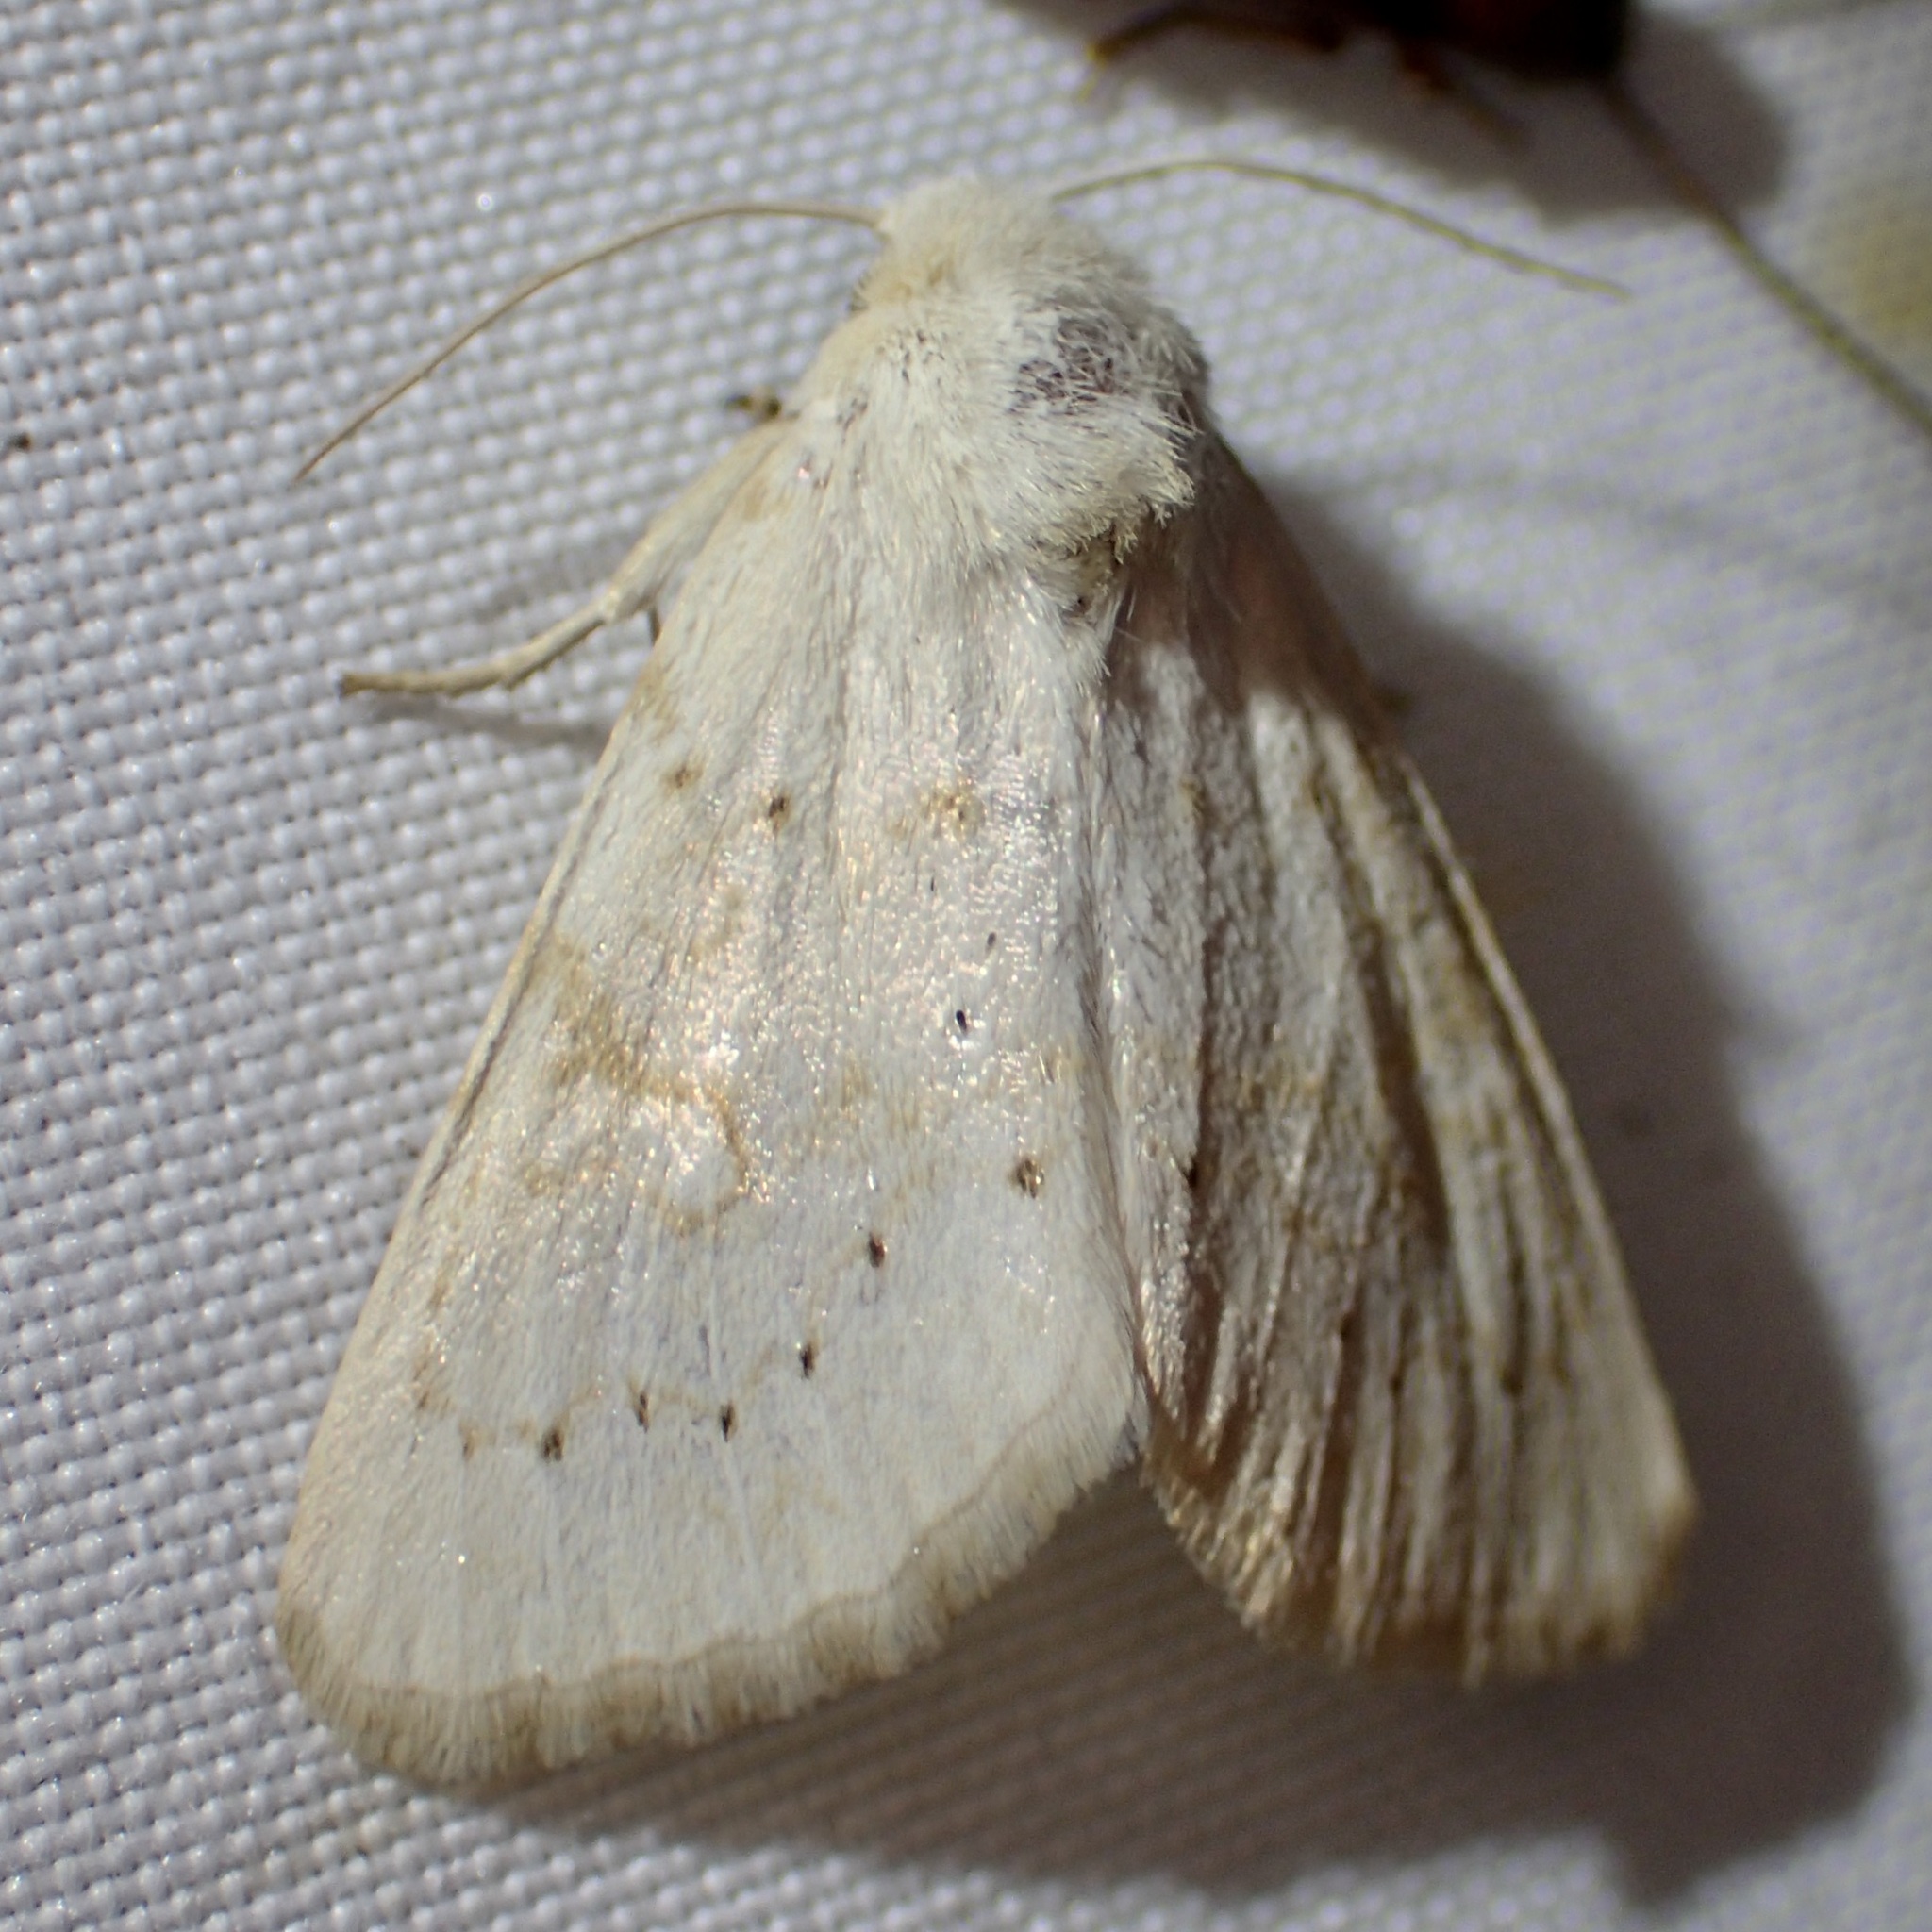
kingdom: Animalia
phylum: Arthropoda
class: Insecta
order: Lepidoptera
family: Noctuidae
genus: Oslaria
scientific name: Oslaria pura
